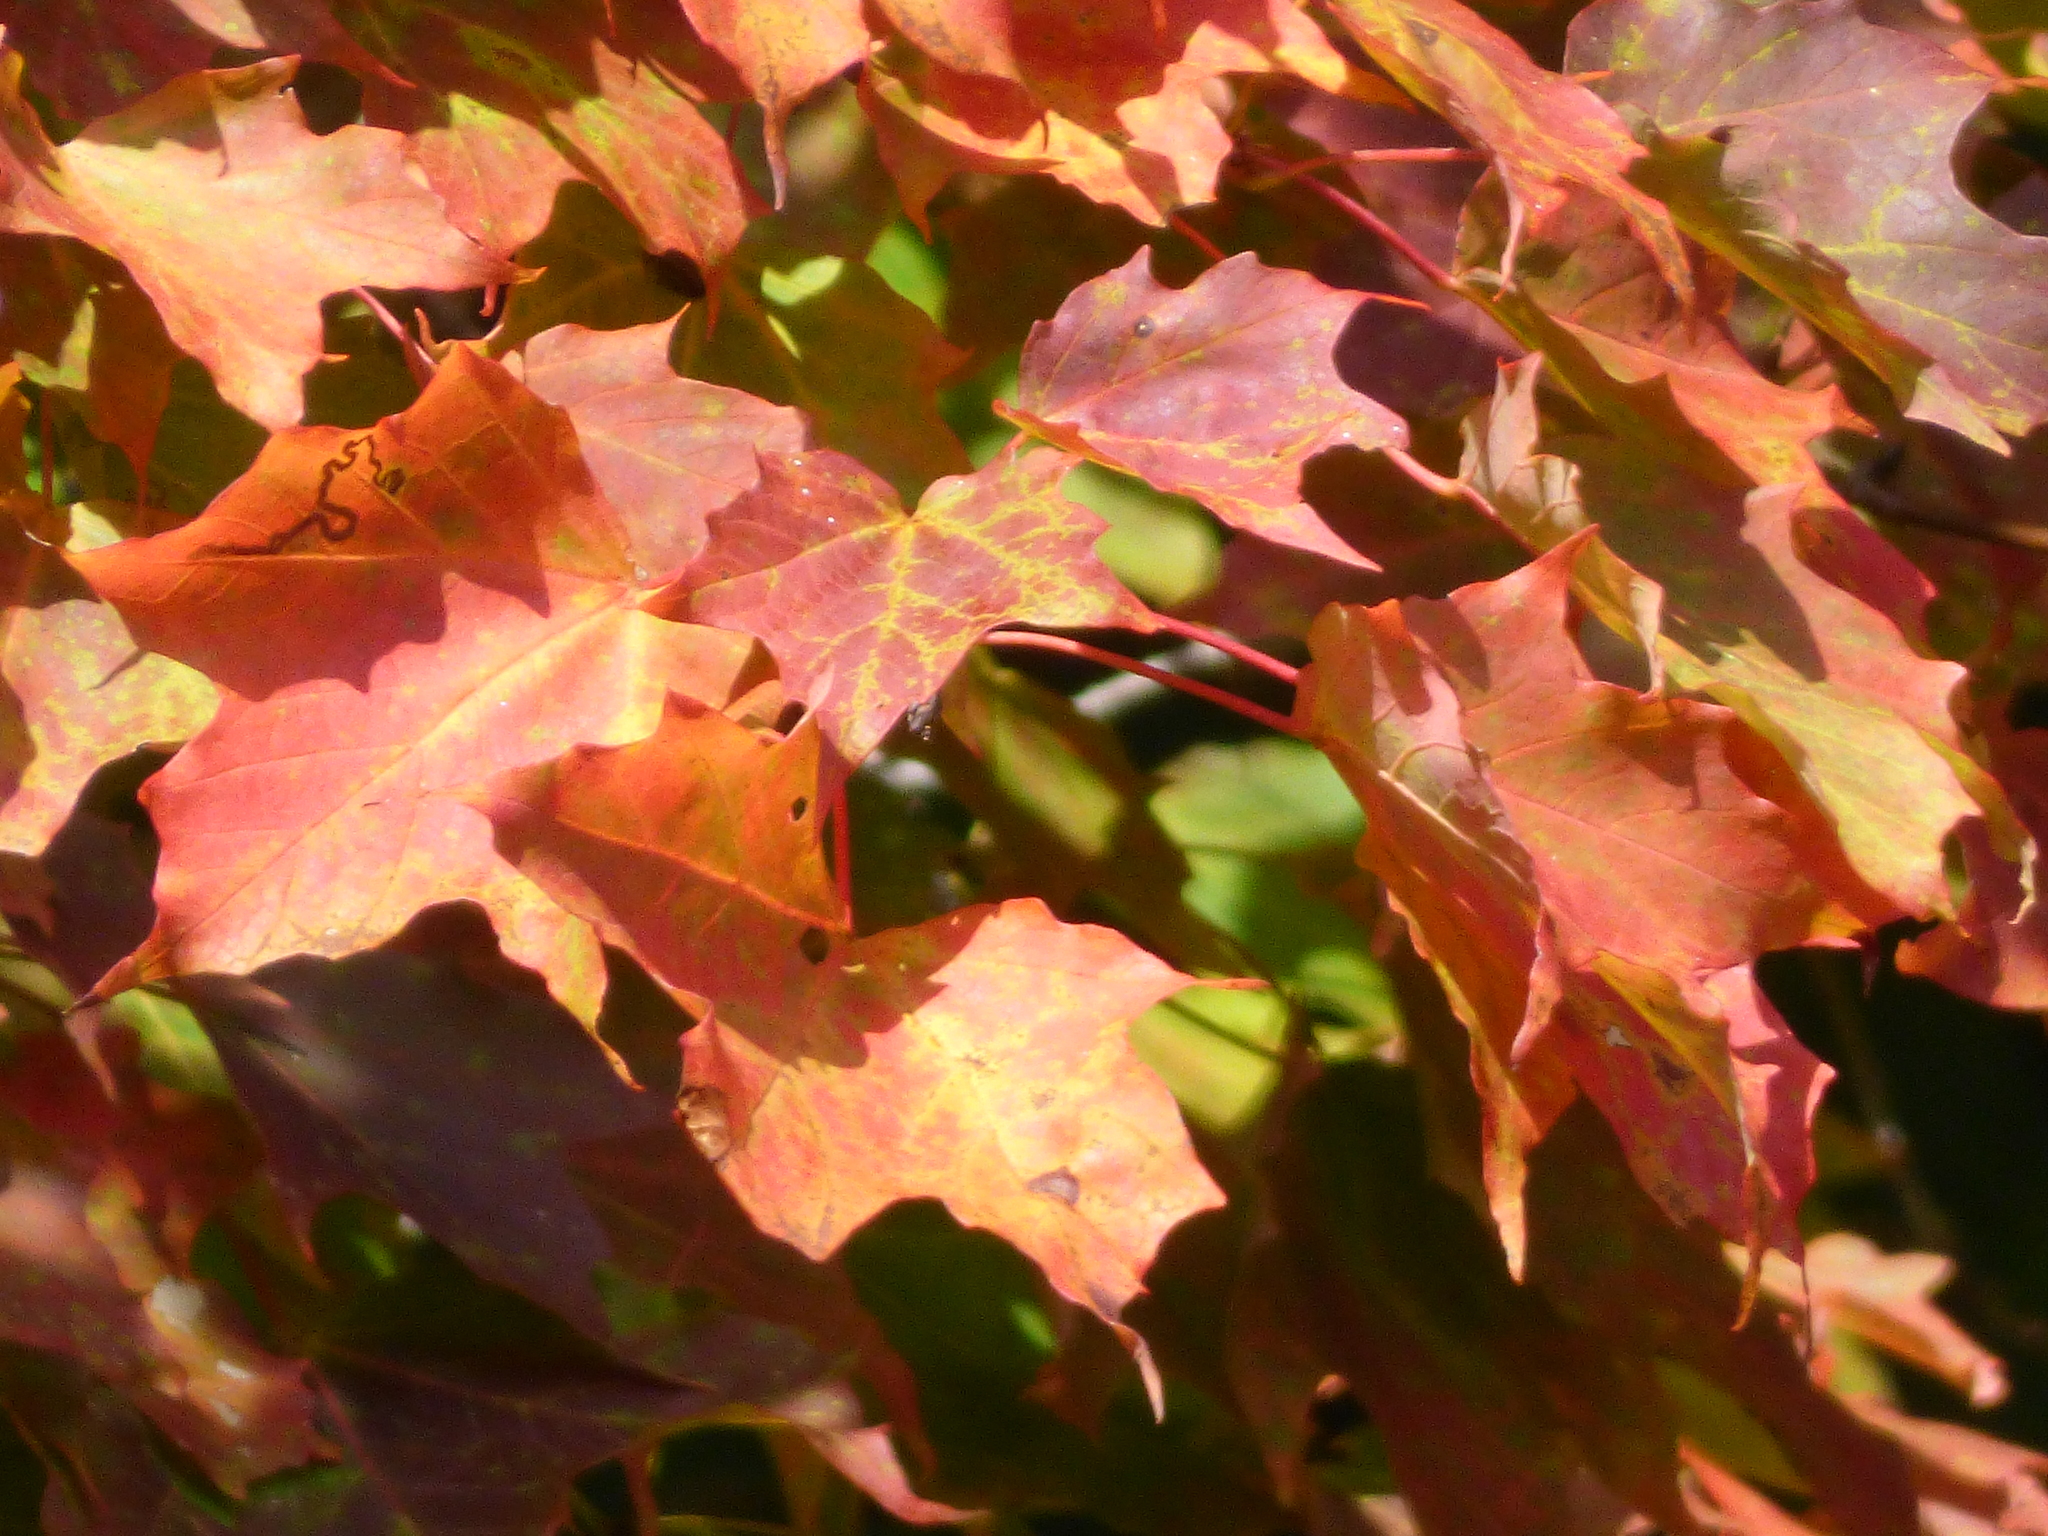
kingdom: Plantae
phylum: Tracheophyta
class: Magnoliopsida
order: Sapindales
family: Sapindaceae
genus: Acer
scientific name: Acer saccharum
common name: Sugar maple
